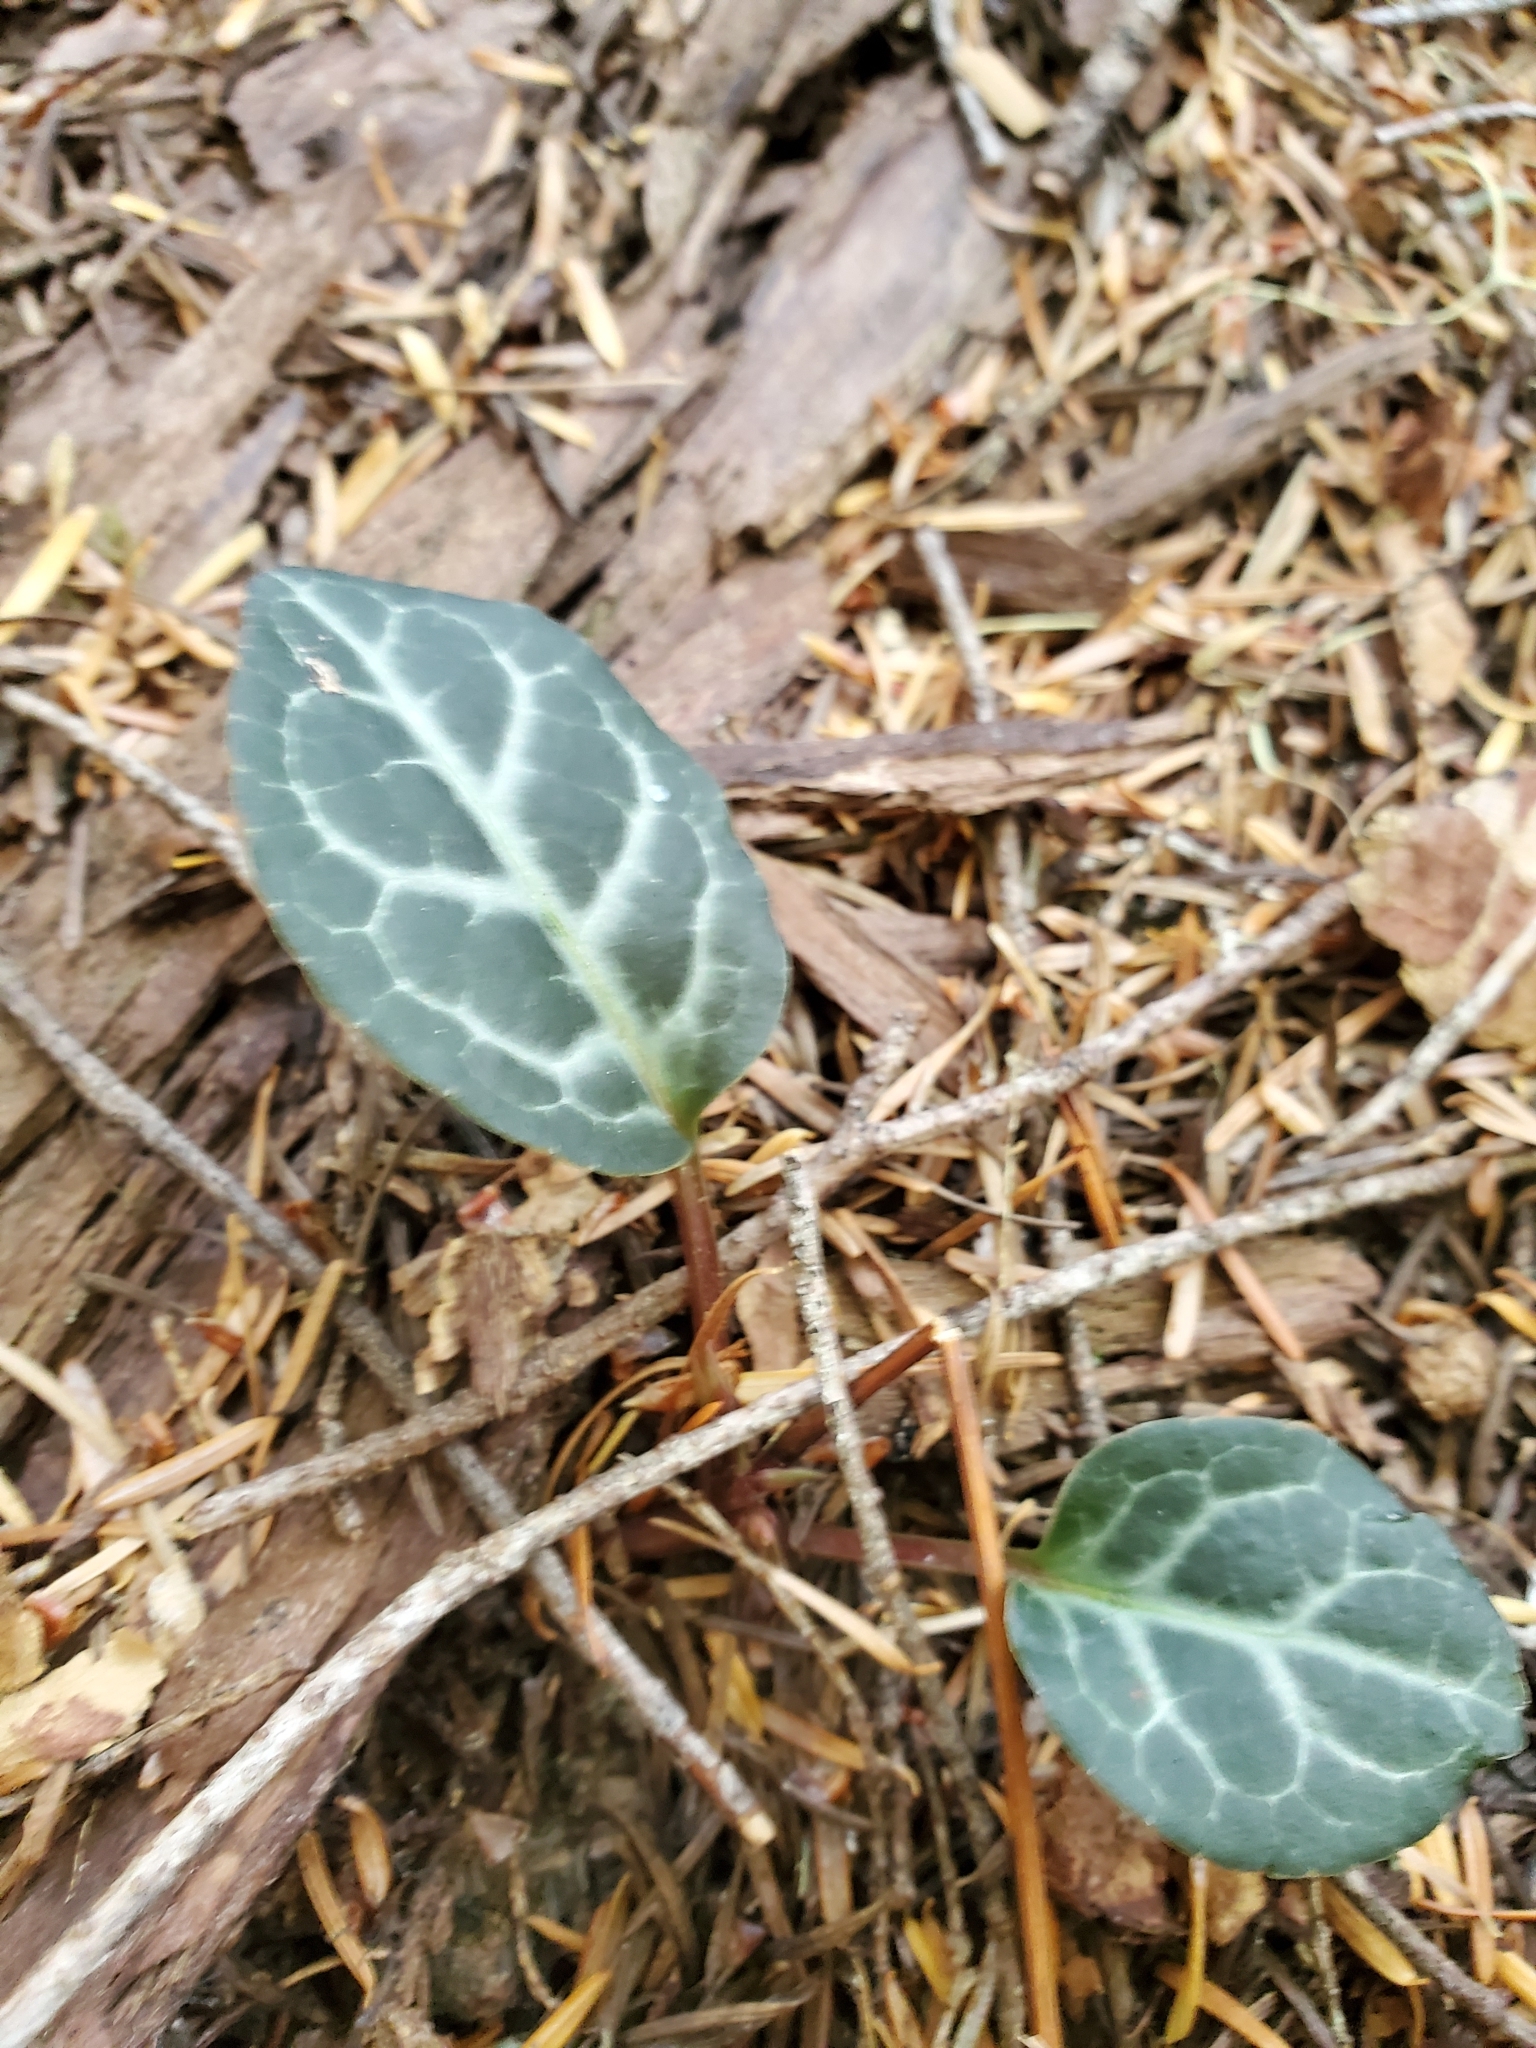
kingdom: Plantae
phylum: Tracheophyta
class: Magnoliopsida
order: Ericales
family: Ericaceae
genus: Pyrola
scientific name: Pyrola picta
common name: White-vein wintergreen
